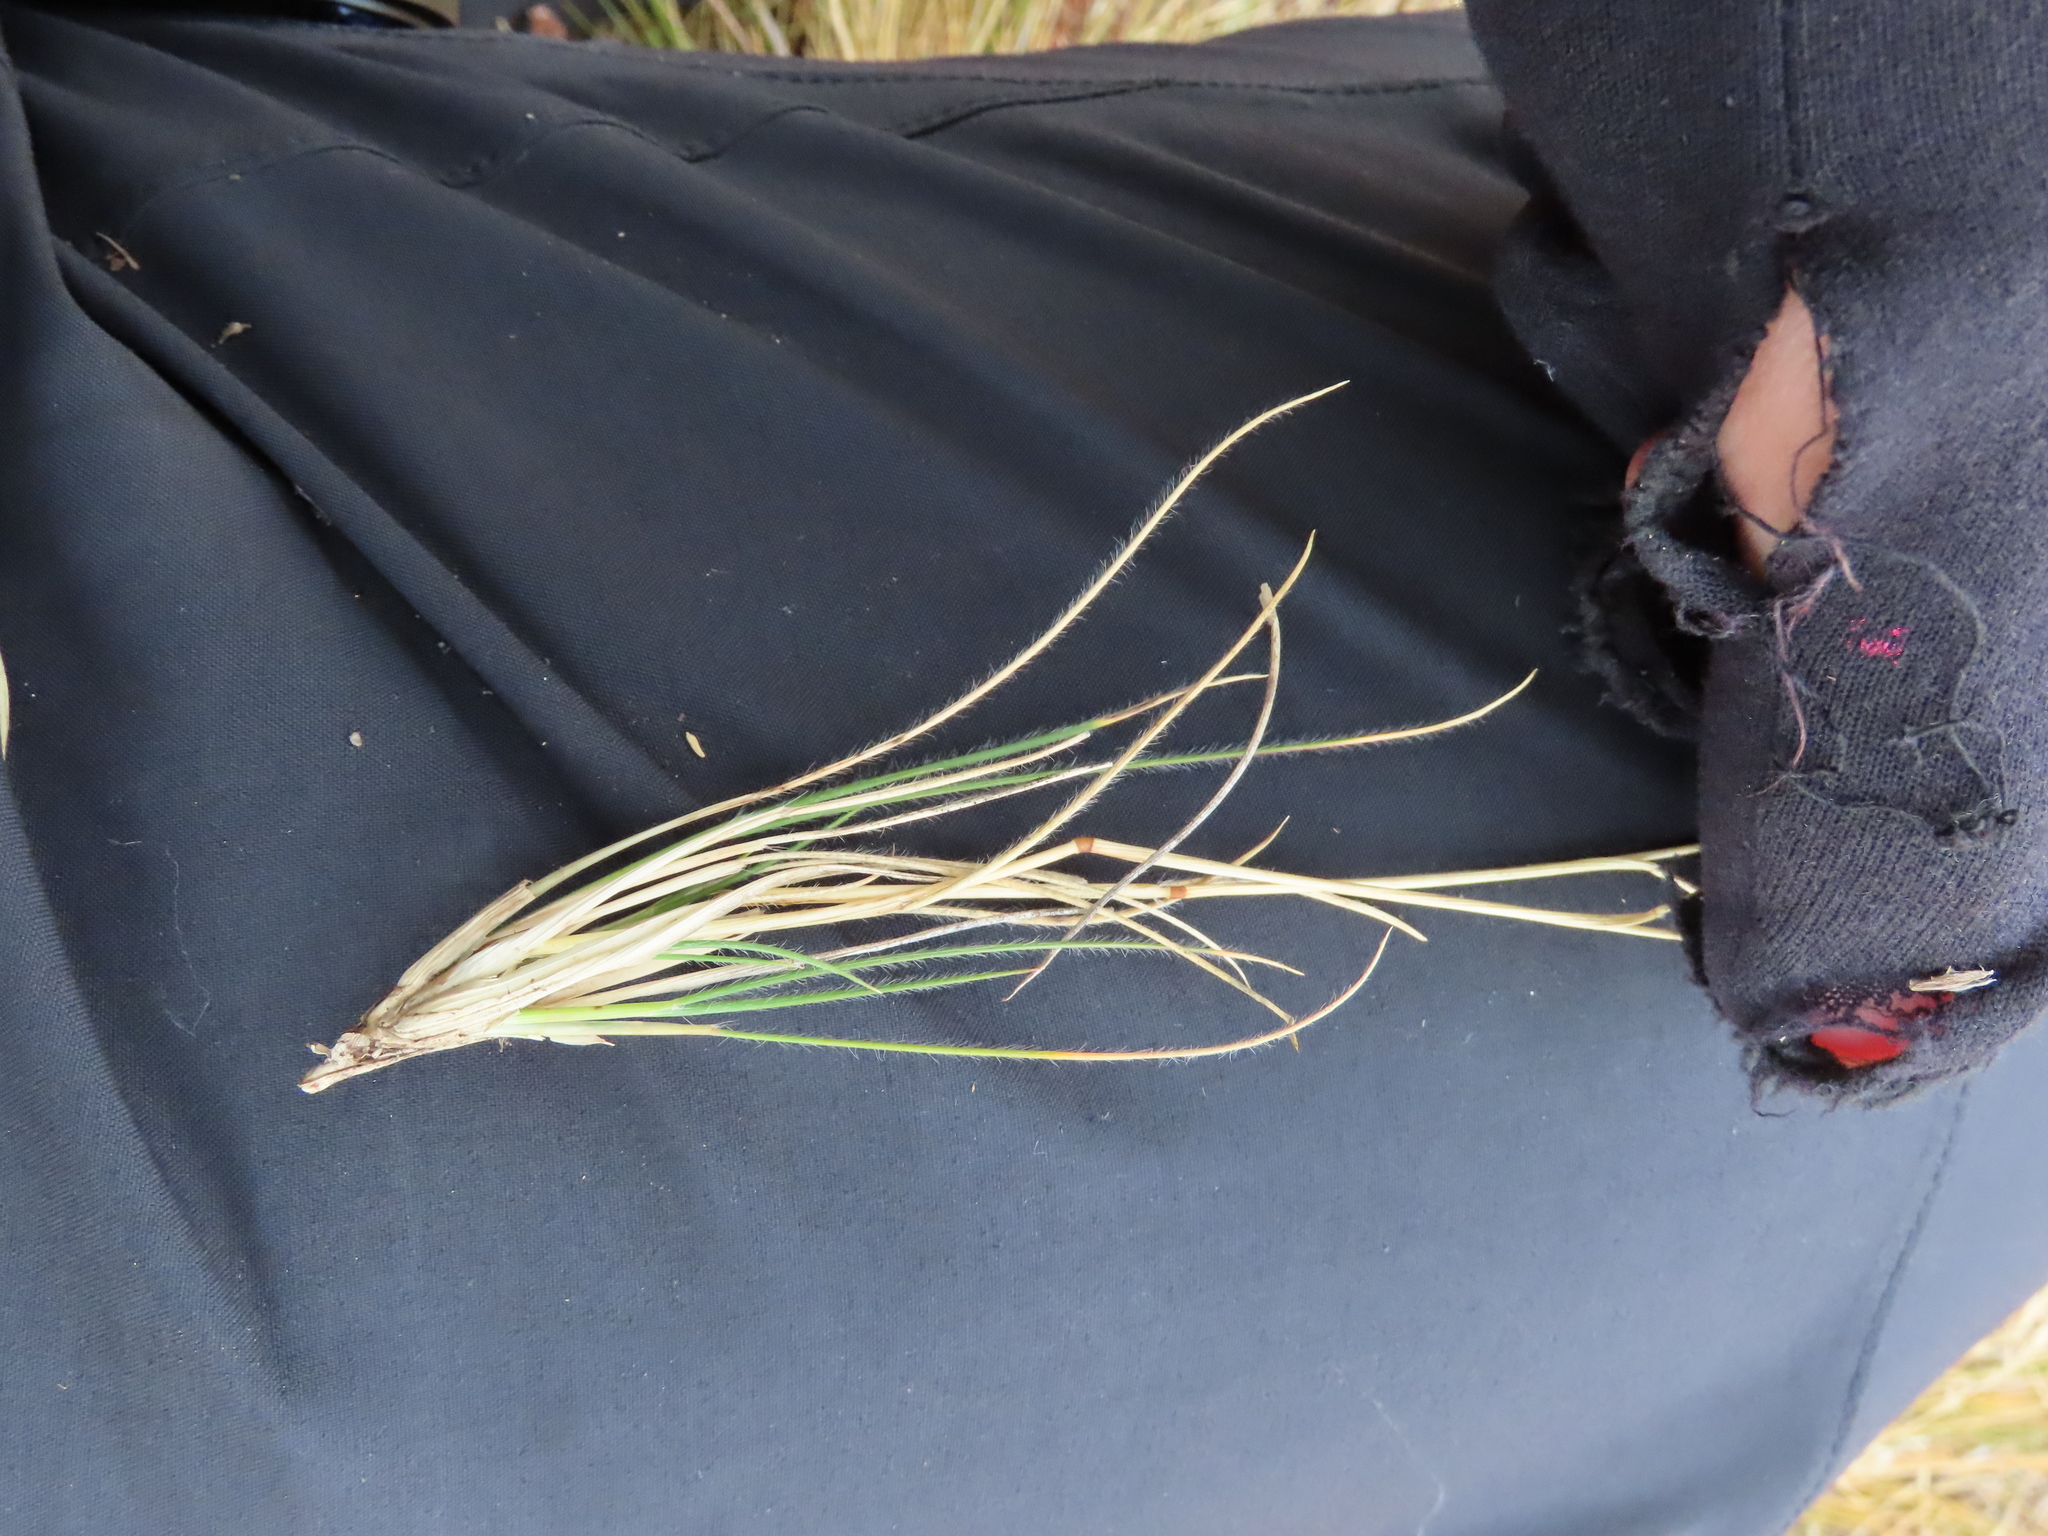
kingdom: Plantae
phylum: Tracheophyta
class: Liliopsida
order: Poales
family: Poaceae
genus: Rytidosperma
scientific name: Rytidosperma virescens
